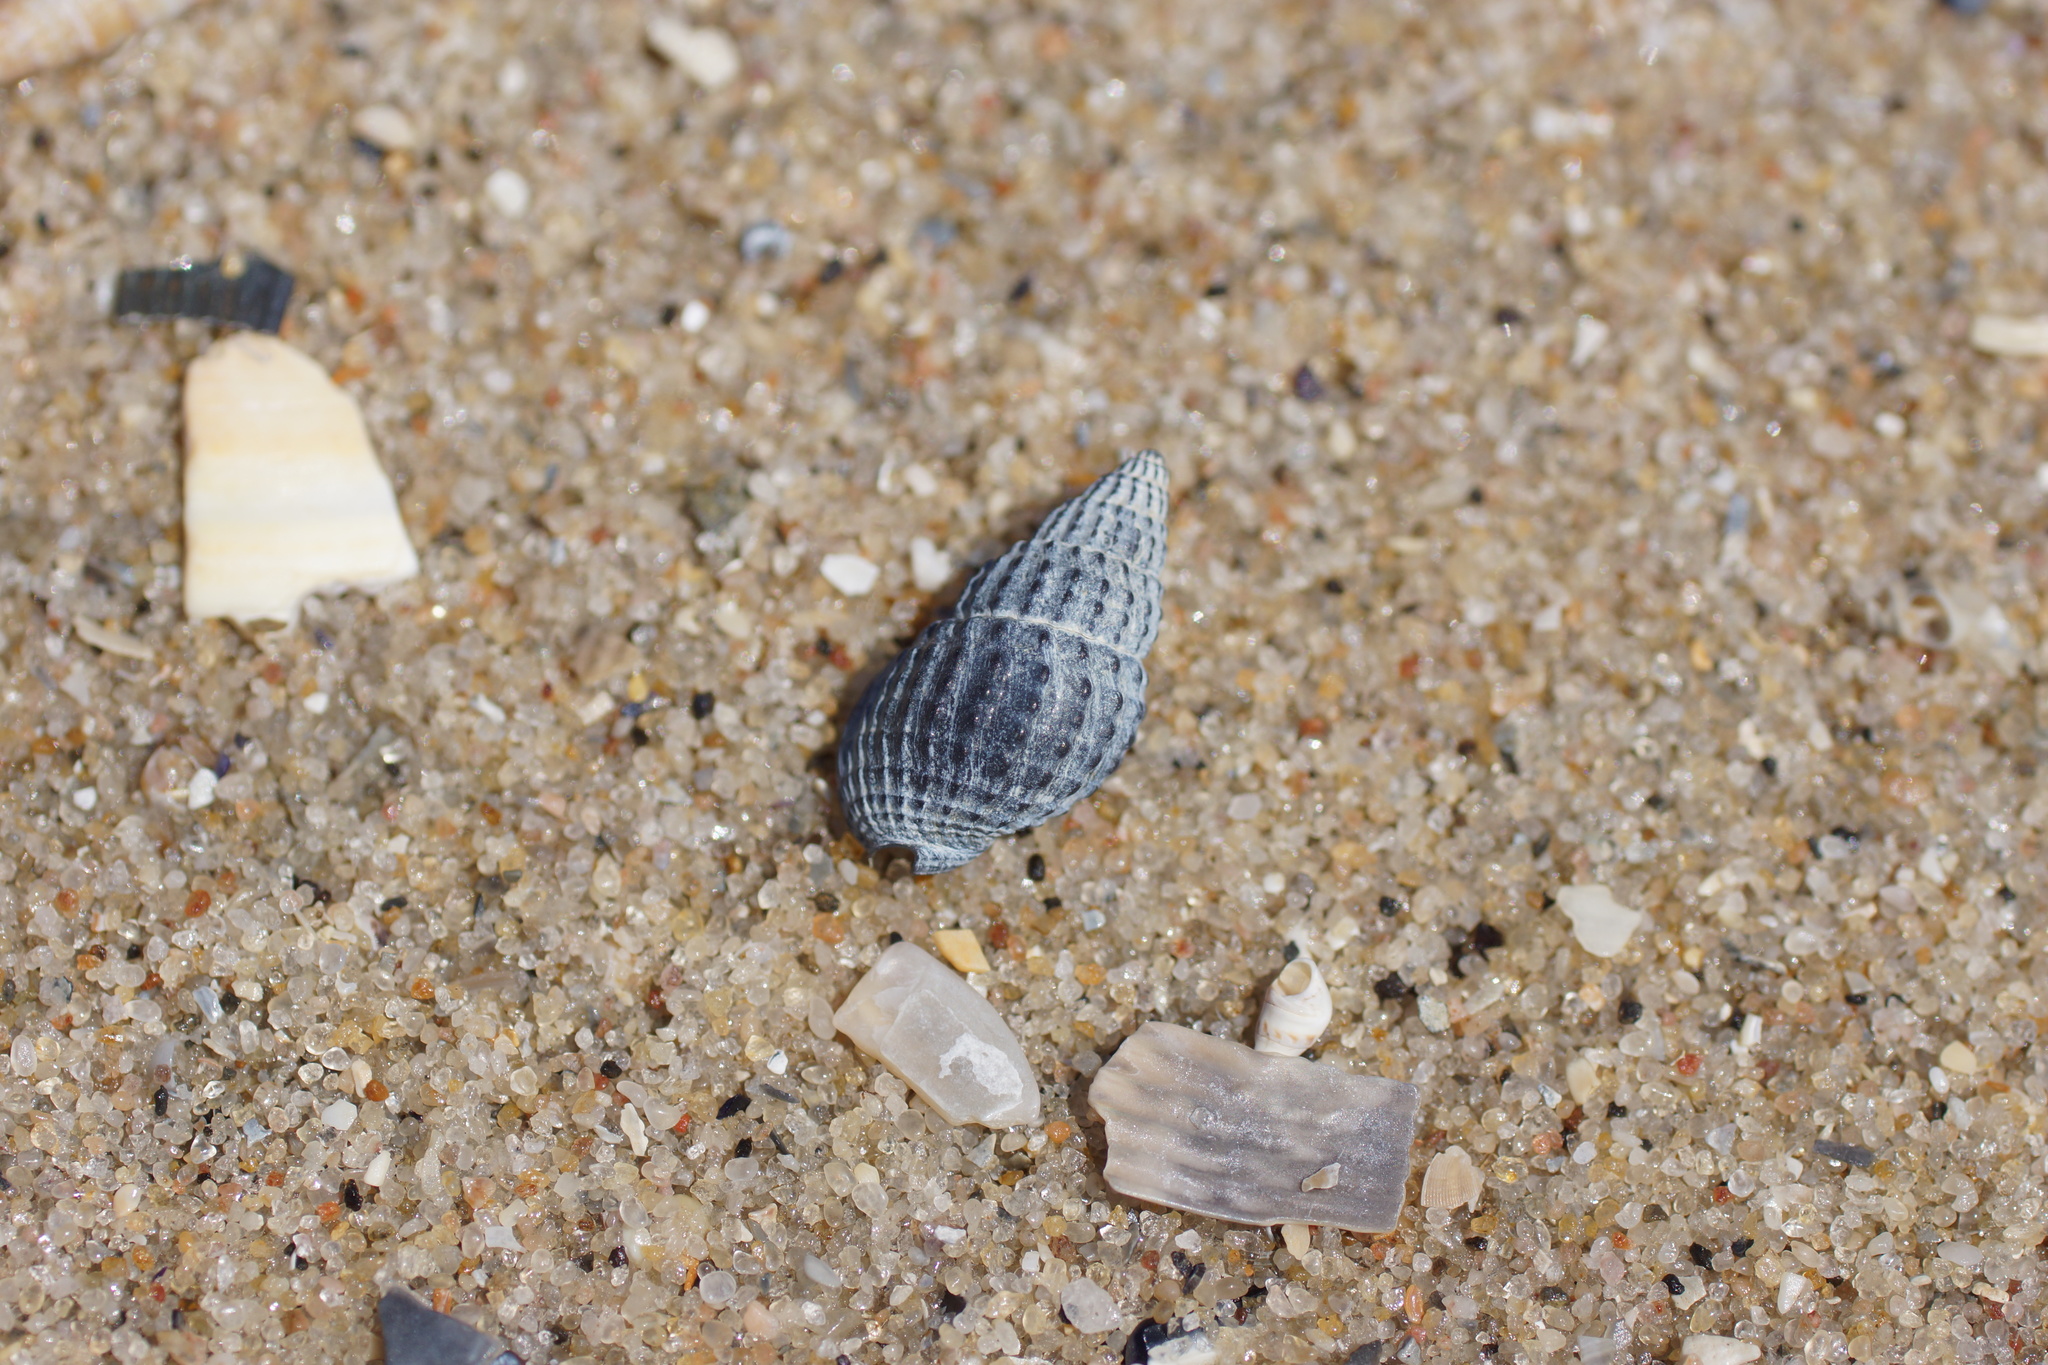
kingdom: Animalia
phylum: Mollusca
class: Gastropoda
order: Neogastropoda
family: Nassariidae
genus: Nassarius
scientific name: Nassarius pyrrhus
